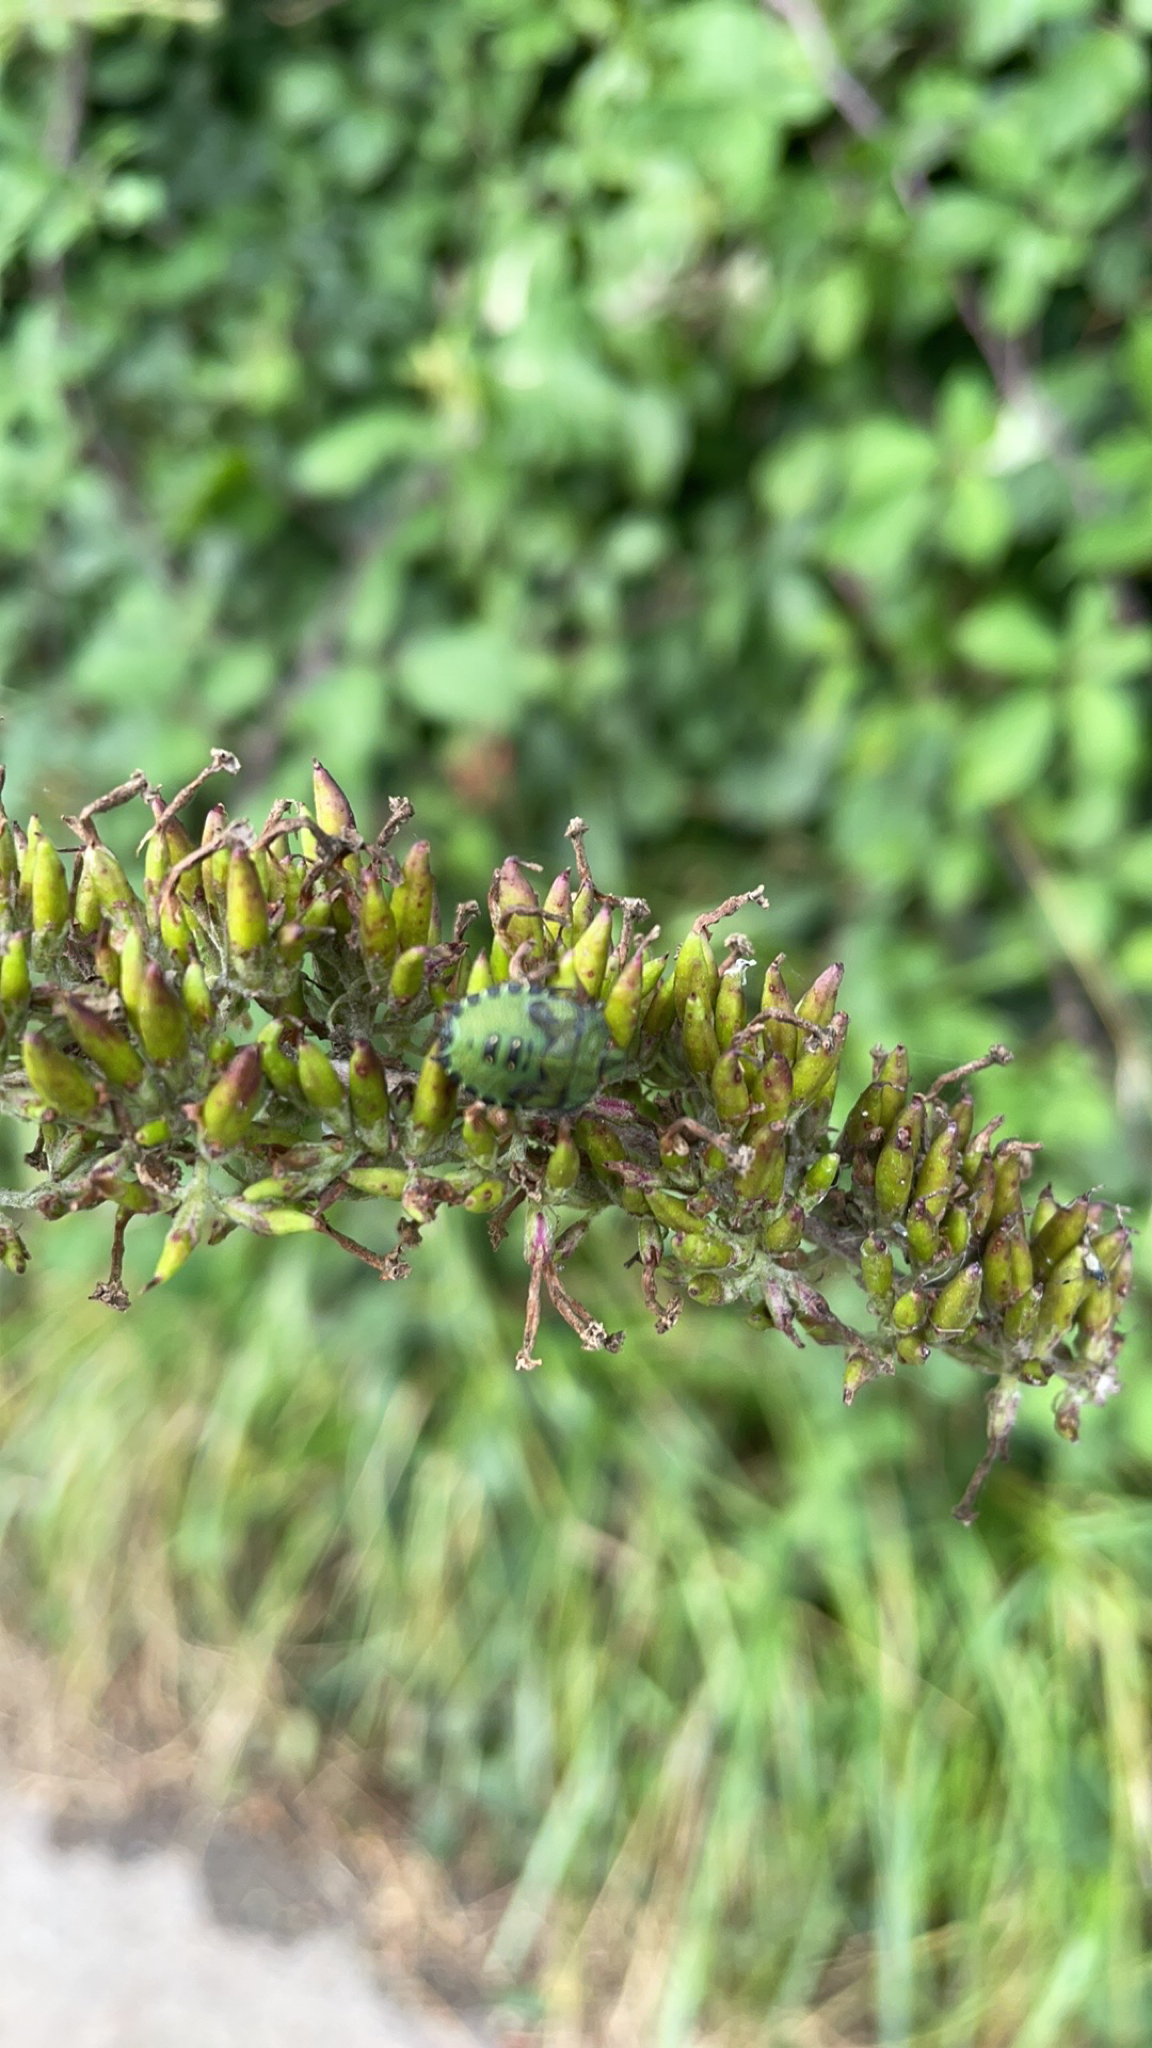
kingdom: Animalia
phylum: Arthropoda
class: Insecta
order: Hemiptera
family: Pentatomidae
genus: Palomena
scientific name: Palomena prasina
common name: Green shieldbug
